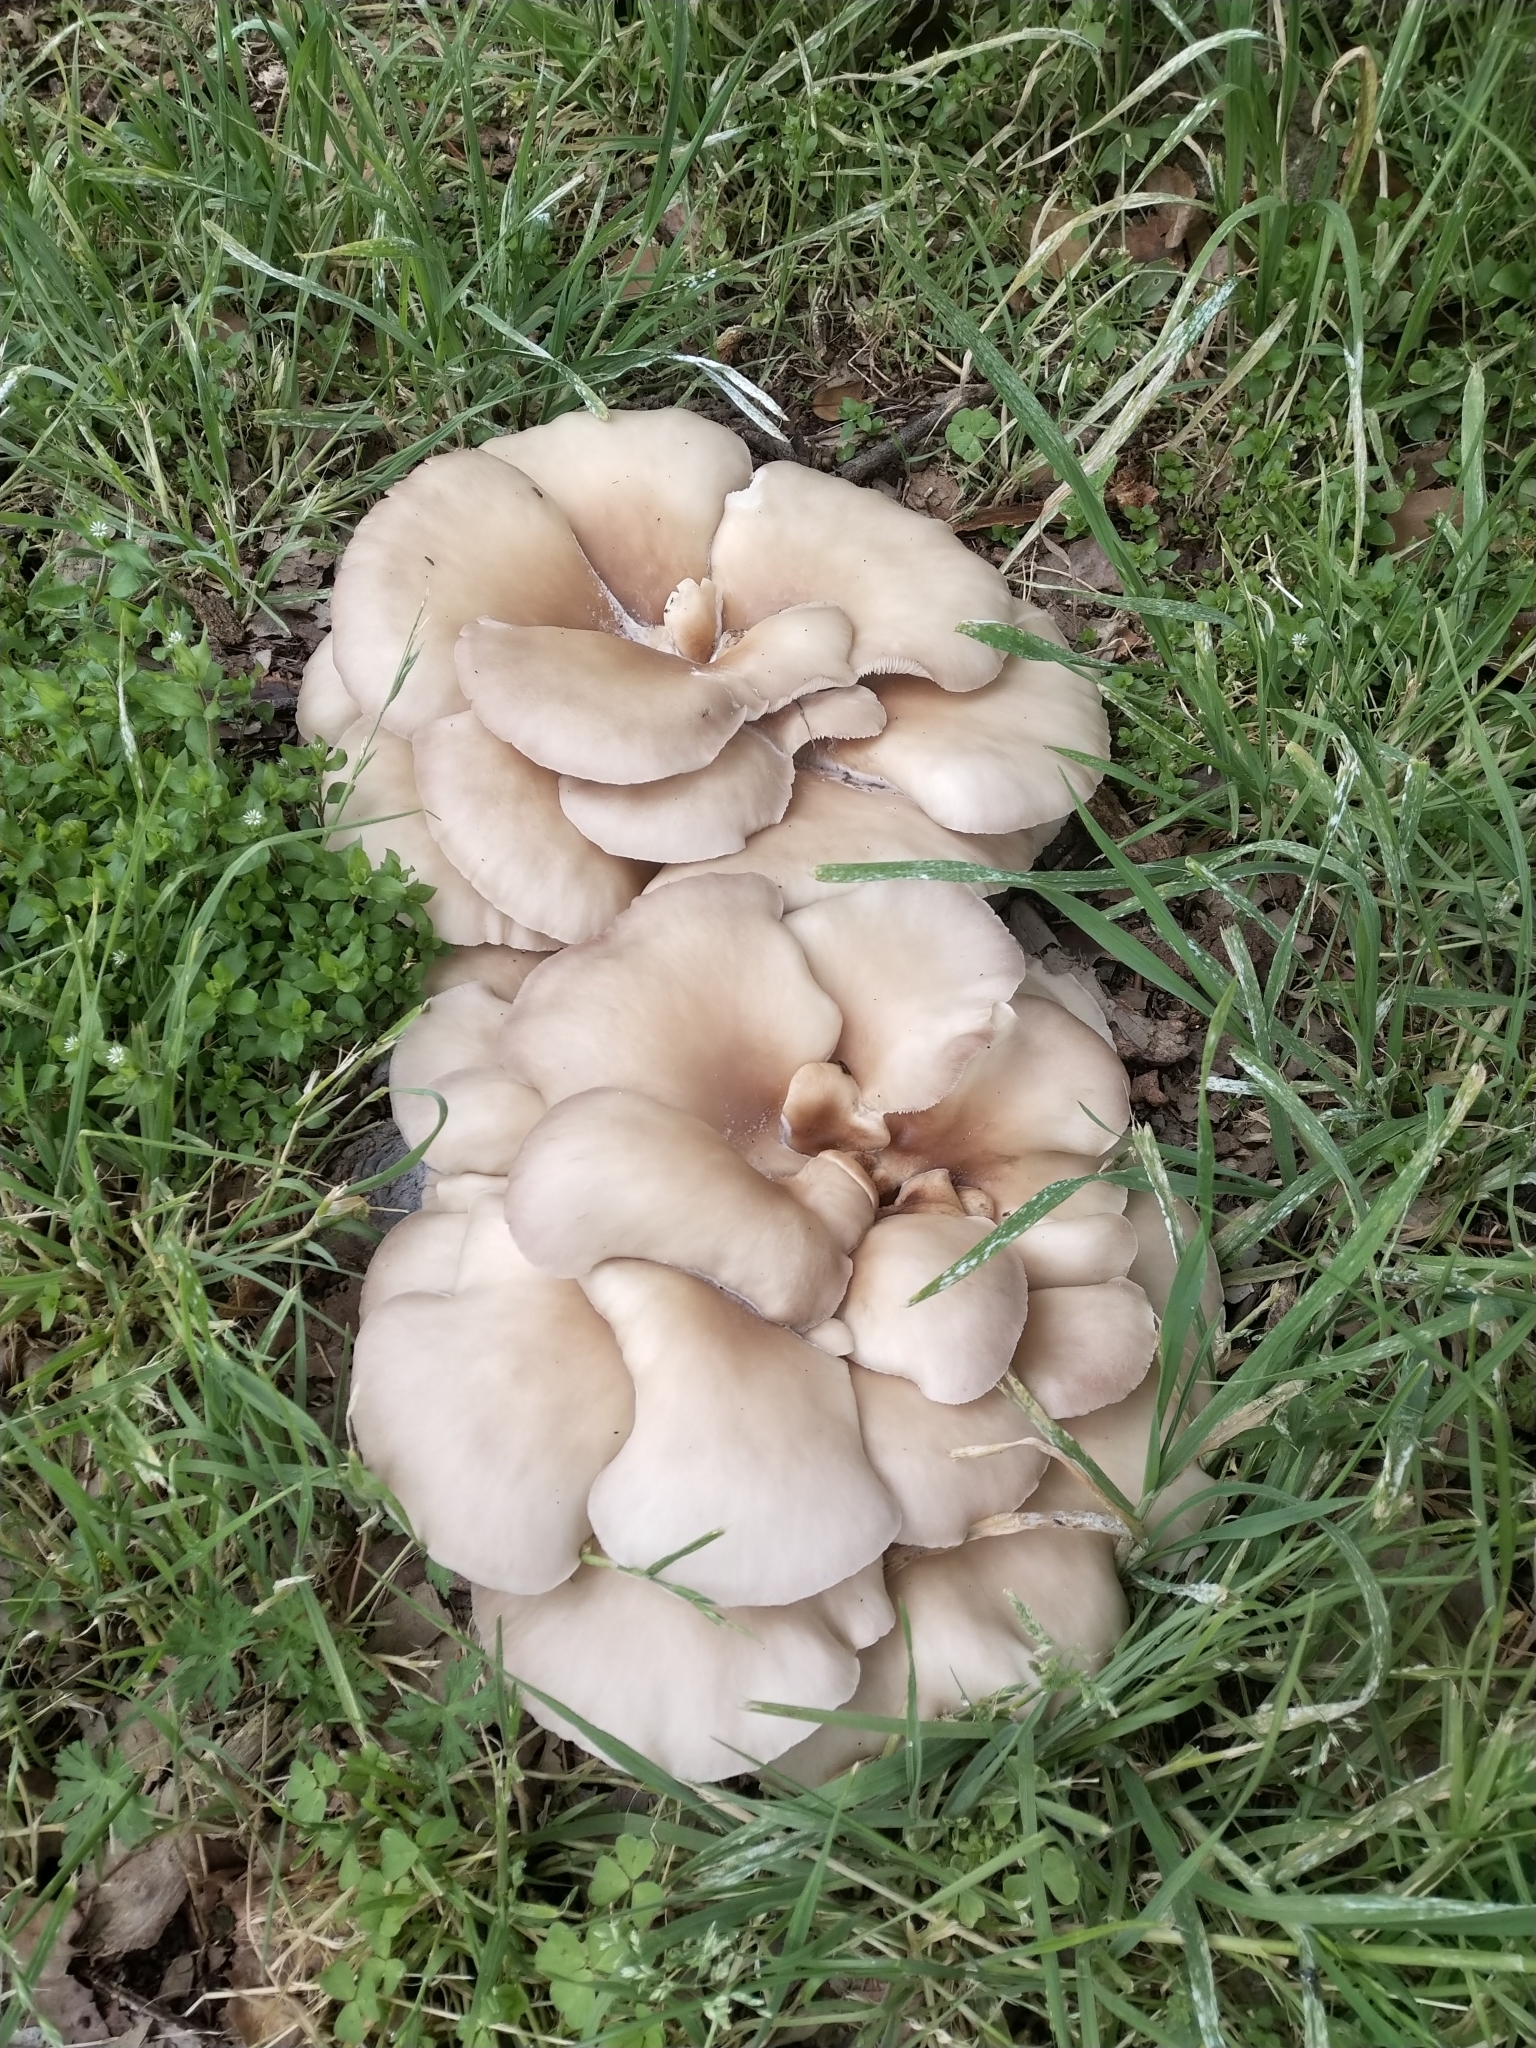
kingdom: Fungi
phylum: Basidiomycota
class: Agaricomycetes
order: Agaricales
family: Pleurotaceae
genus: Hohenbuehelia
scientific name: Hohenbuehelia petaloides
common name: Shoehorn oyster
